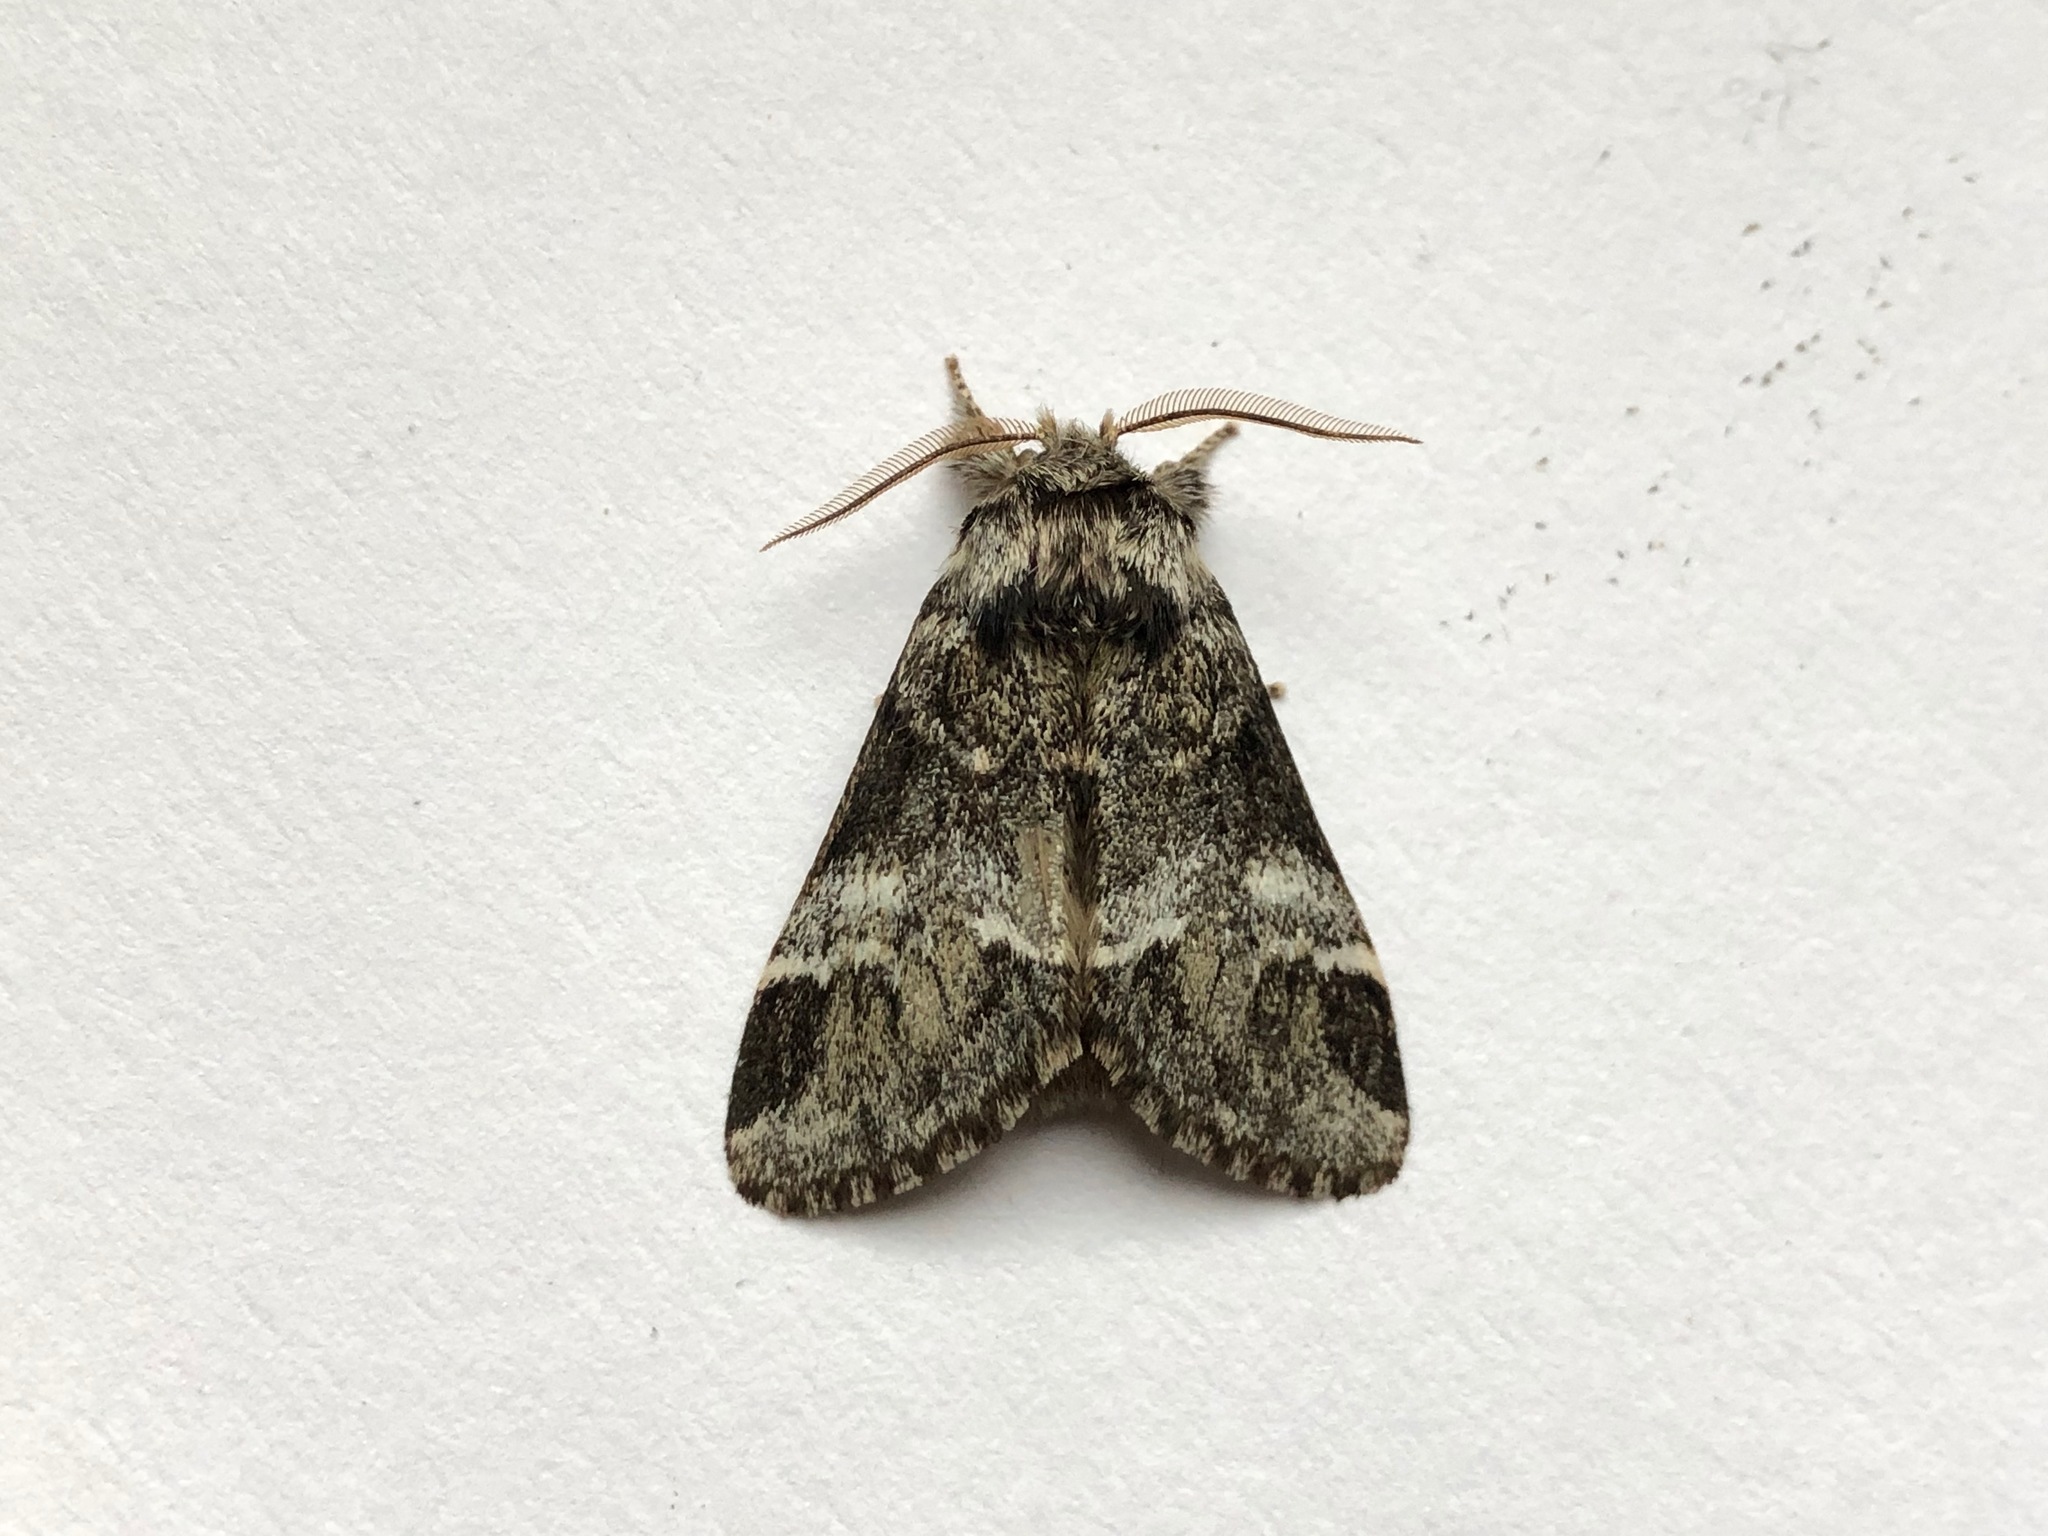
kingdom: Animalia
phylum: Arthropoda
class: Insecta
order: Lepidoptera
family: Notodontidae
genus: Drymonia
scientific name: Drymonia dodonaea
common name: Marbled brown
